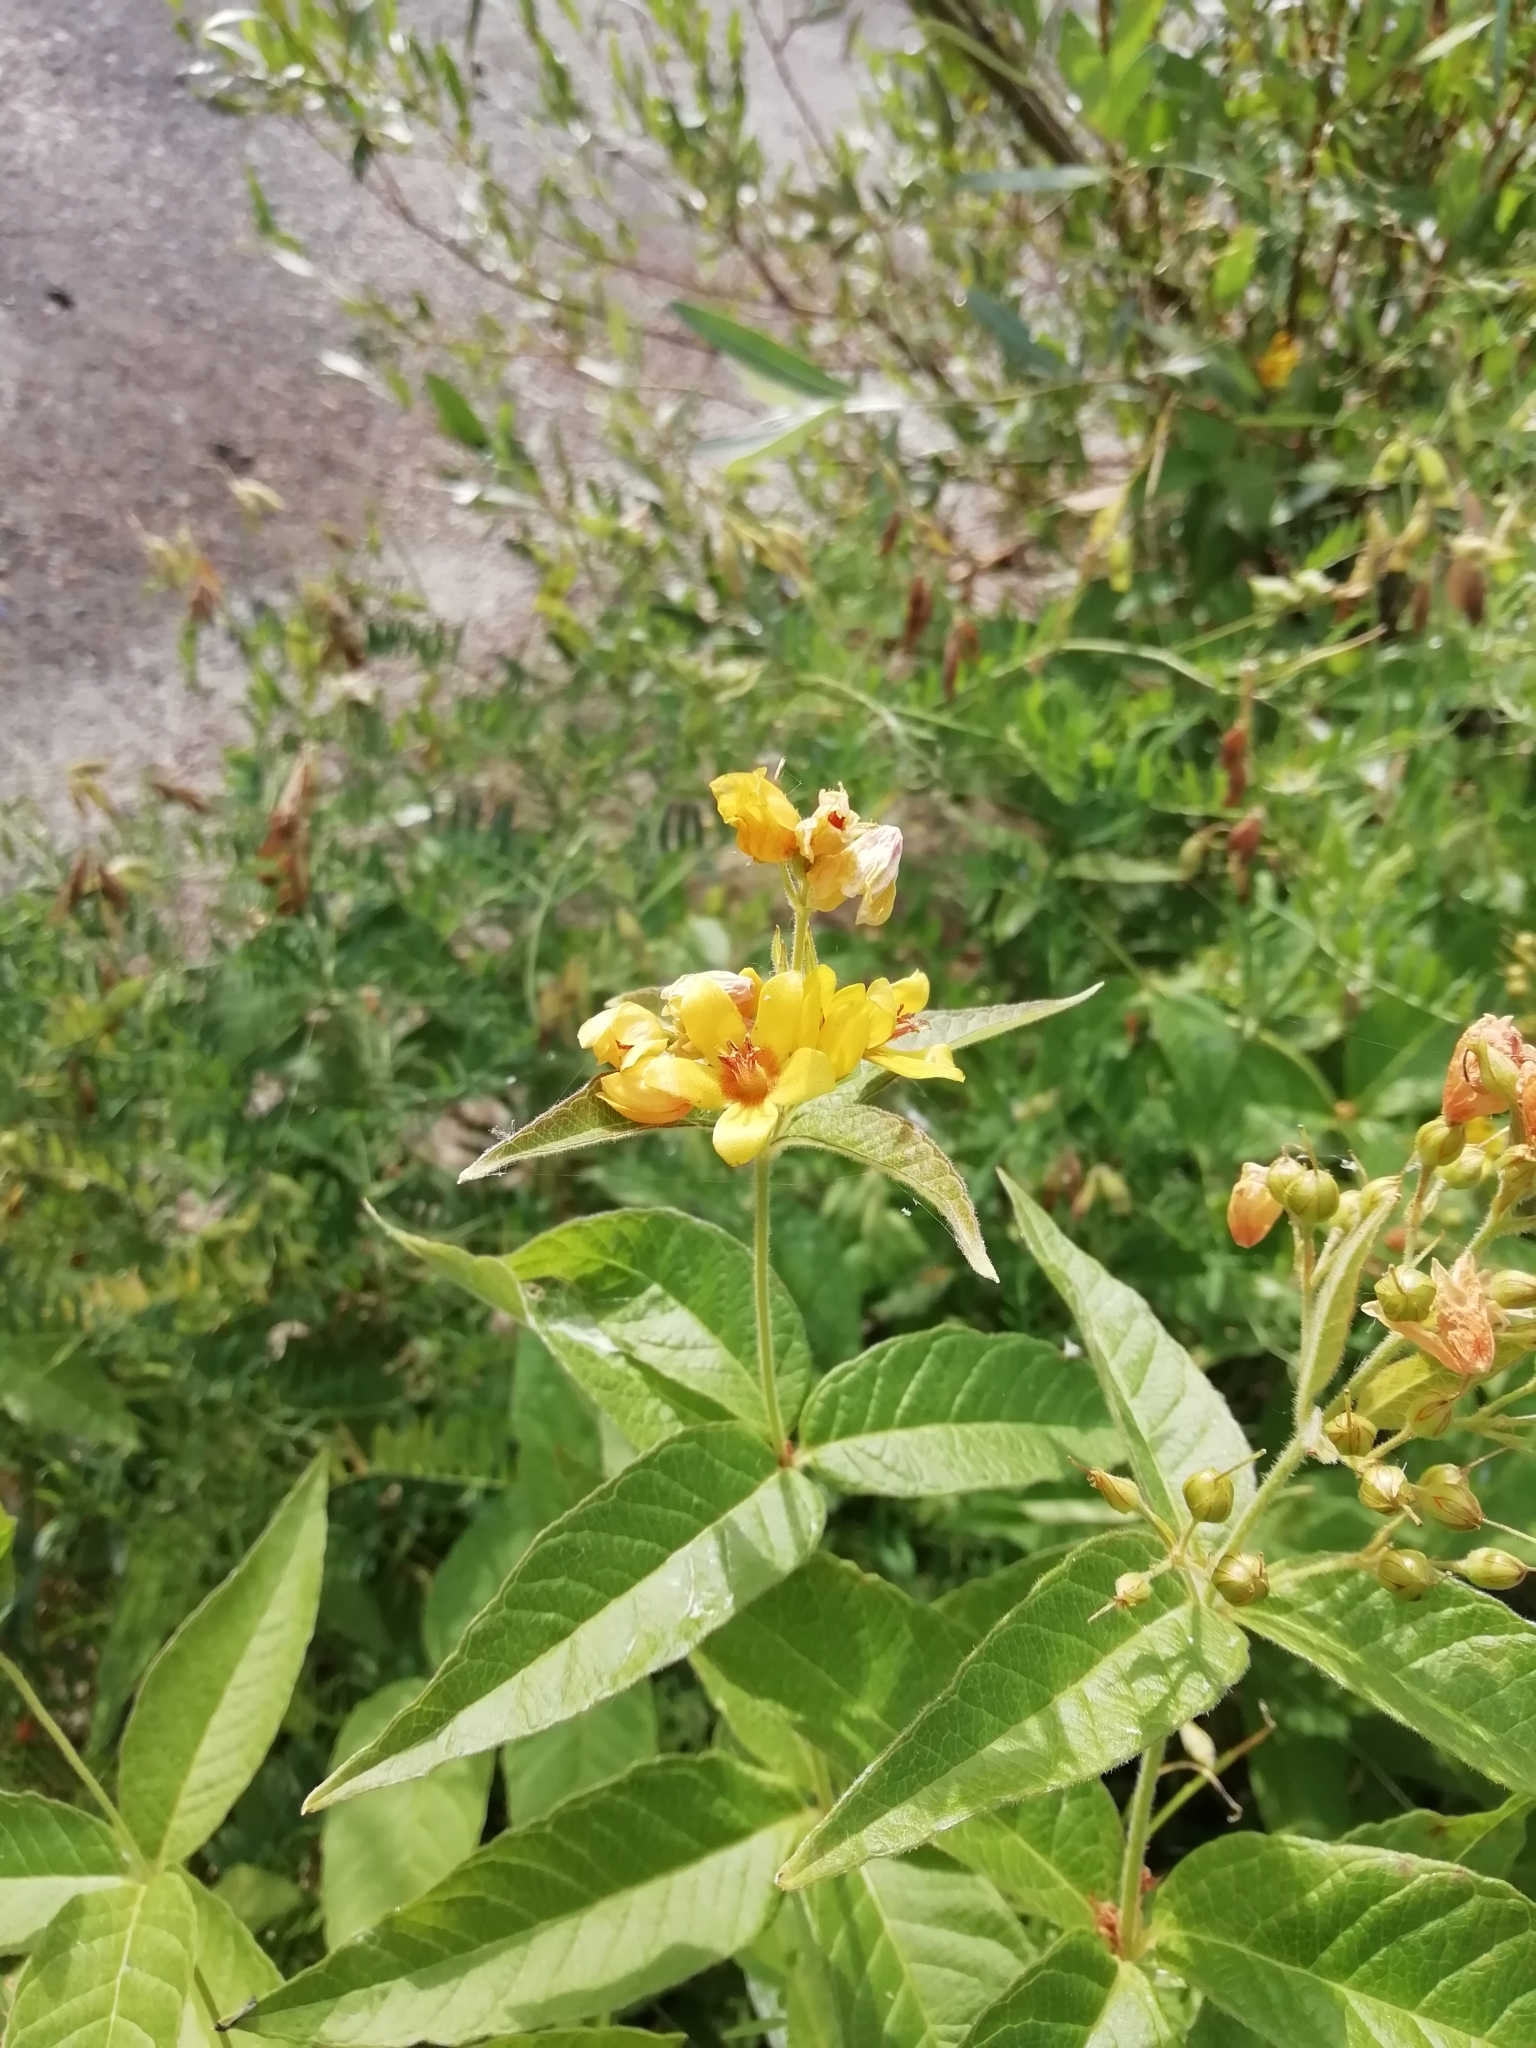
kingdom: Plantae
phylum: Tracheophyta
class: Magnoliopsida
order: Ericales
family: Primulaceae
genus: Lysimachia
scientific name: Lysimachia vulgaris
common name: Yellow loosestrife
